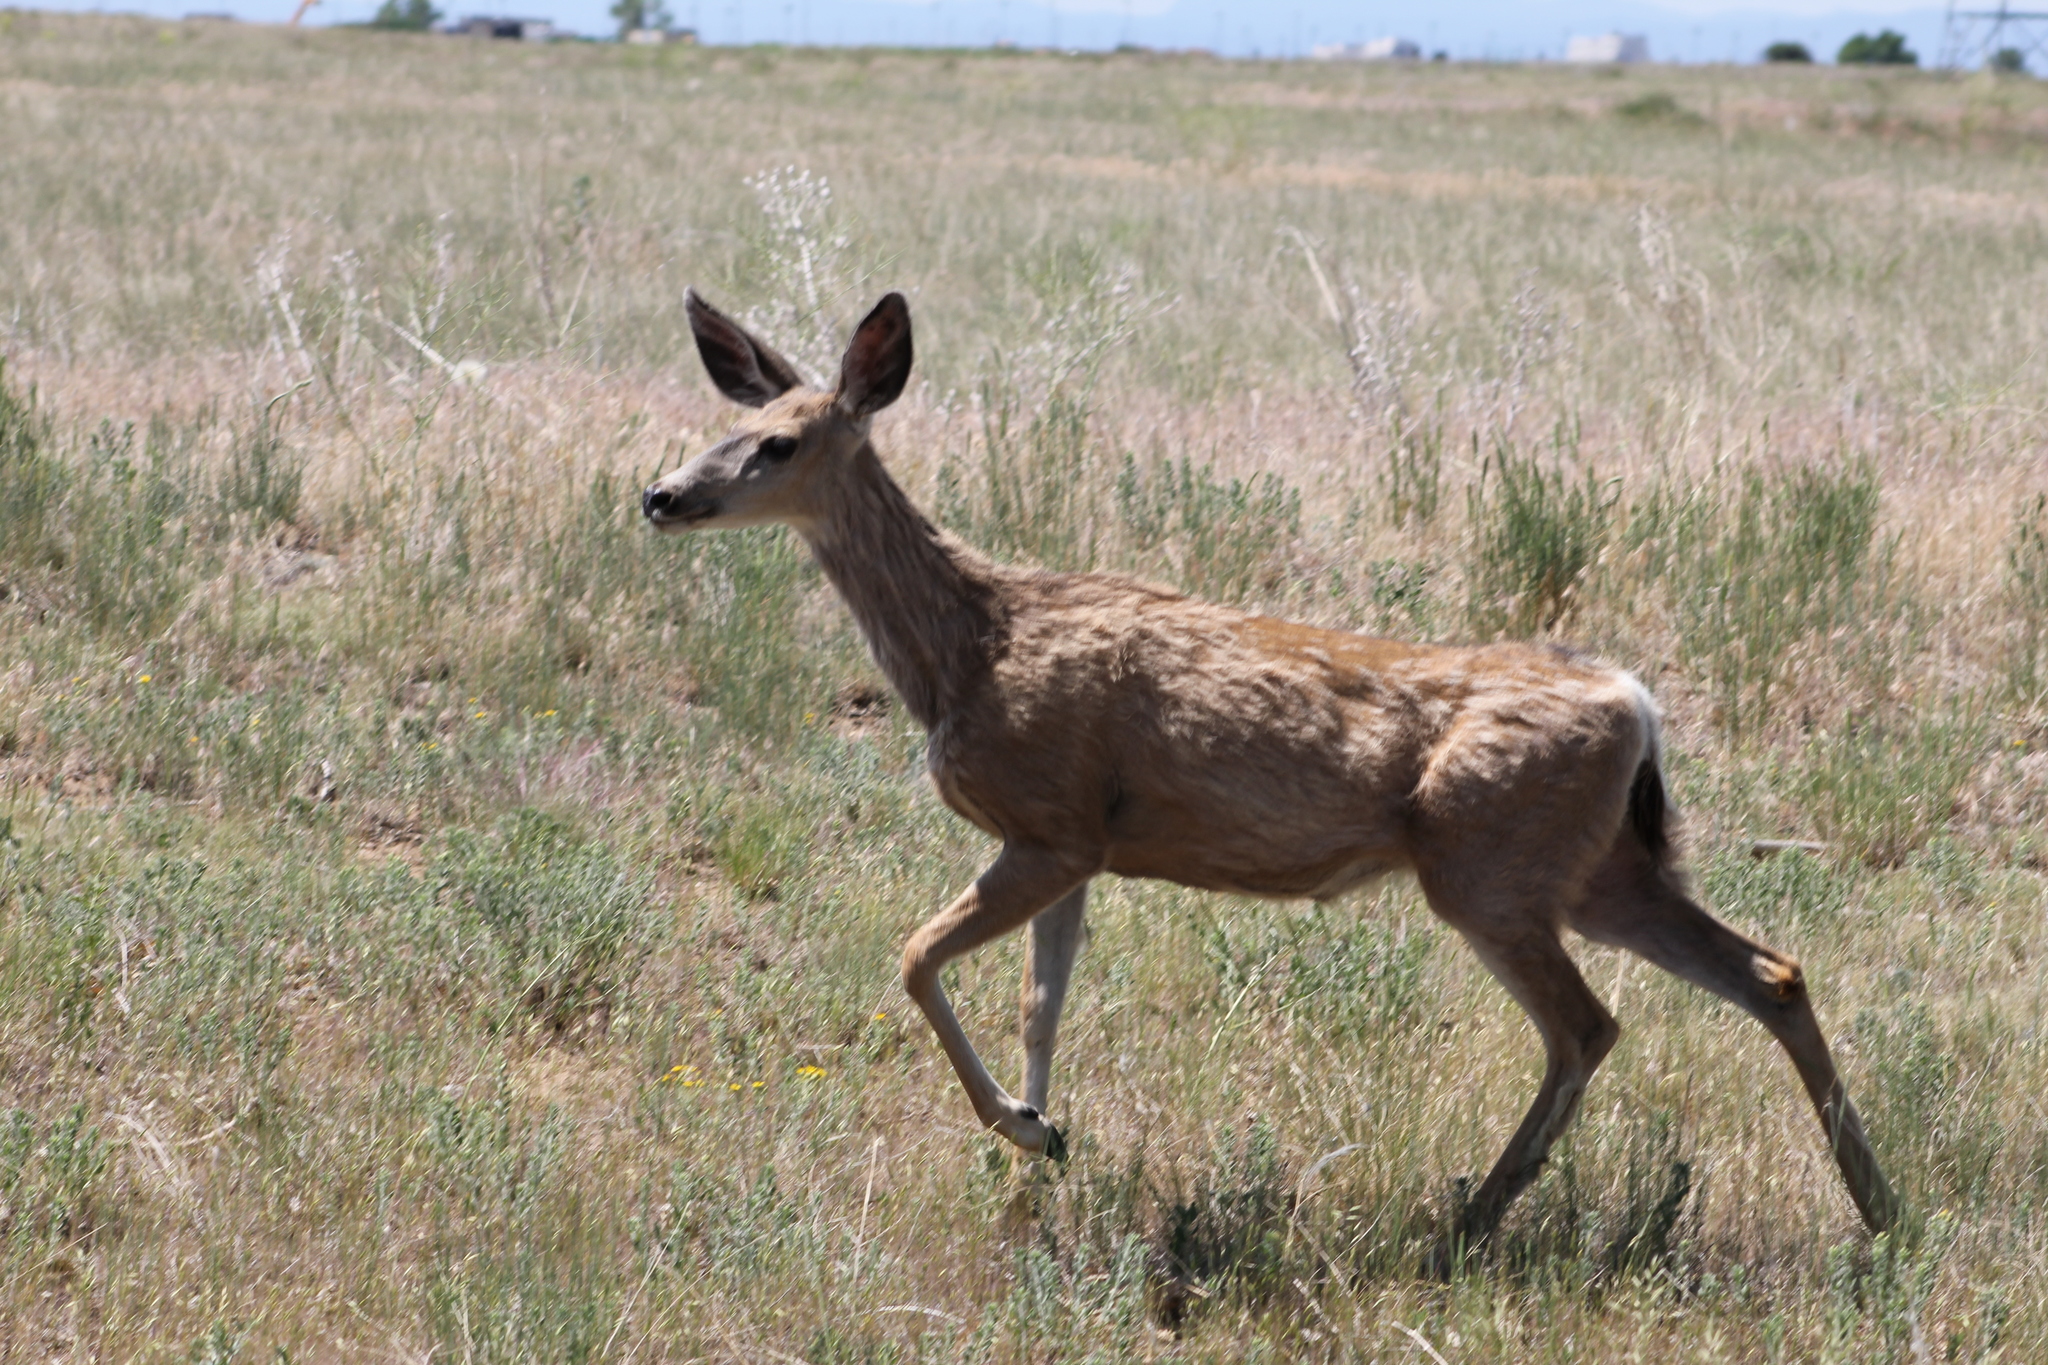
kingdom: Animalia
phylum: Chordata
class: Mammalia
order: Artiodactyla
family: Cervidae
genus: Odocoileus
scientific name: Odocoileus hemionus
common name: Mule deer
